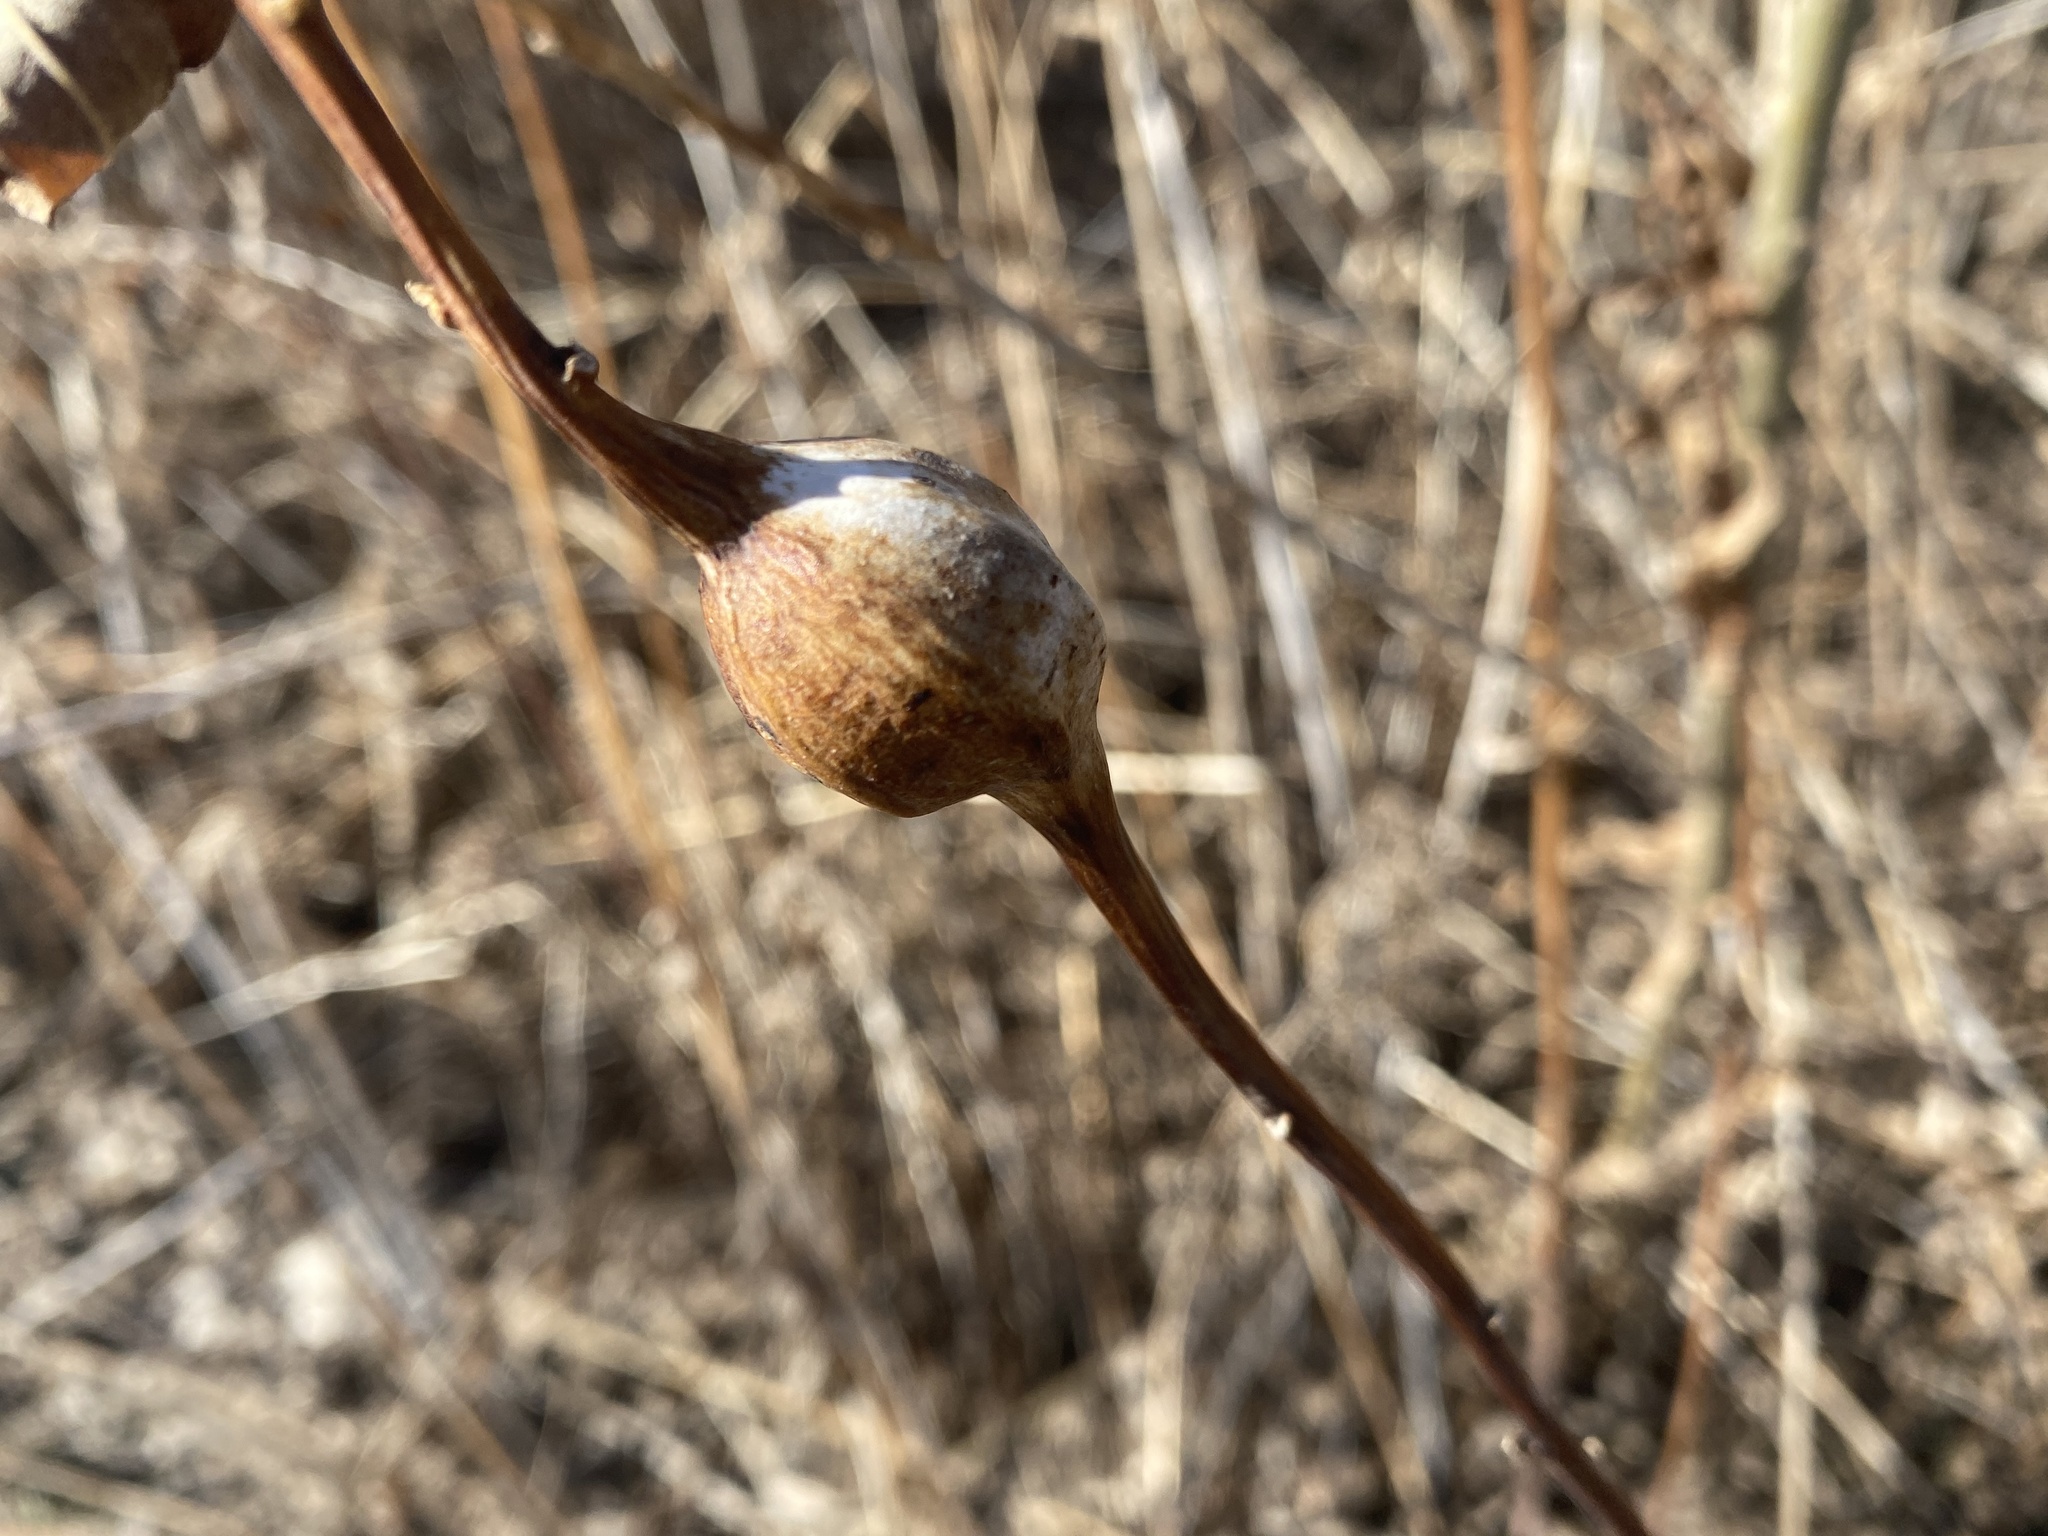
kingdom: Animalia
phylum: Arthropoda
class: Insecta
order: Diptera
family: Tephritidae
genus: Eurosta
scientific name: Eurosta solidaginis
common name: Goldenrod gall fly
